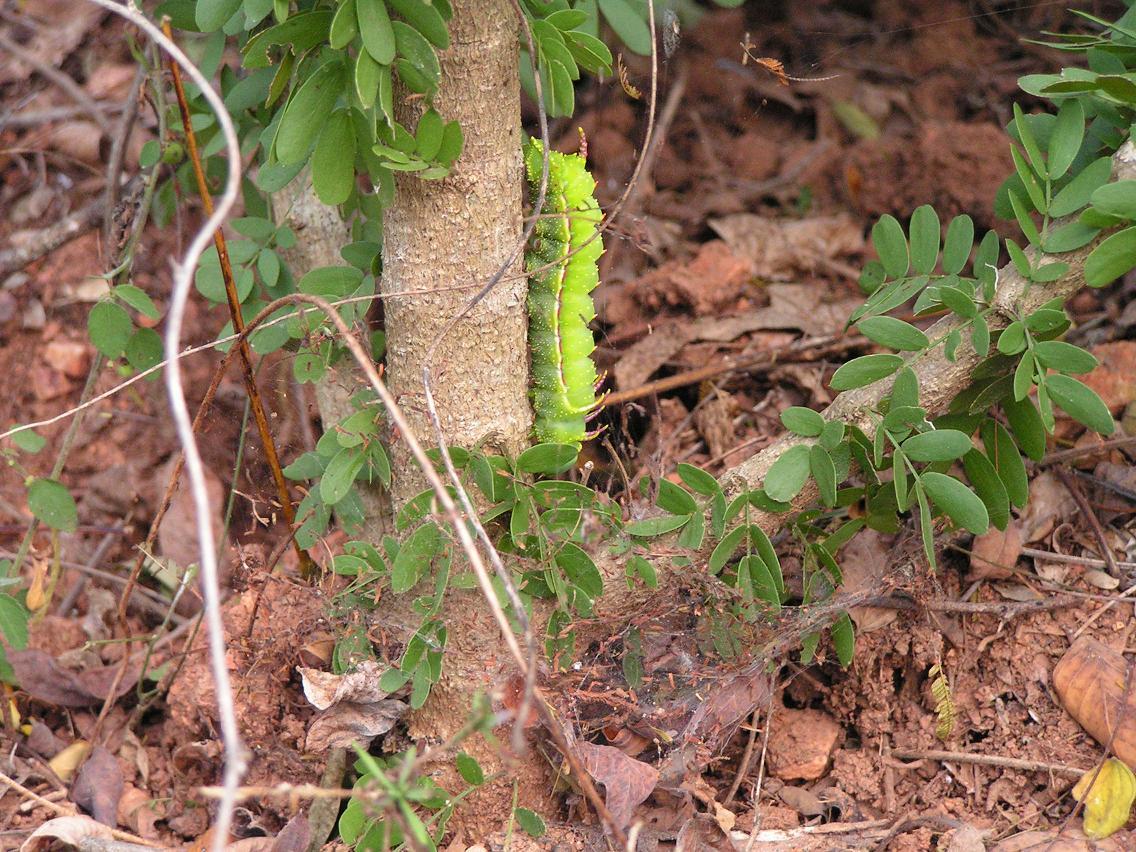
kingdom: Animalia
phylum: Arthropoda
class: Insecta
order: Lepidoptera
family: Saturniidae
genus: Syssphinx
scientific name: Syssphinx
